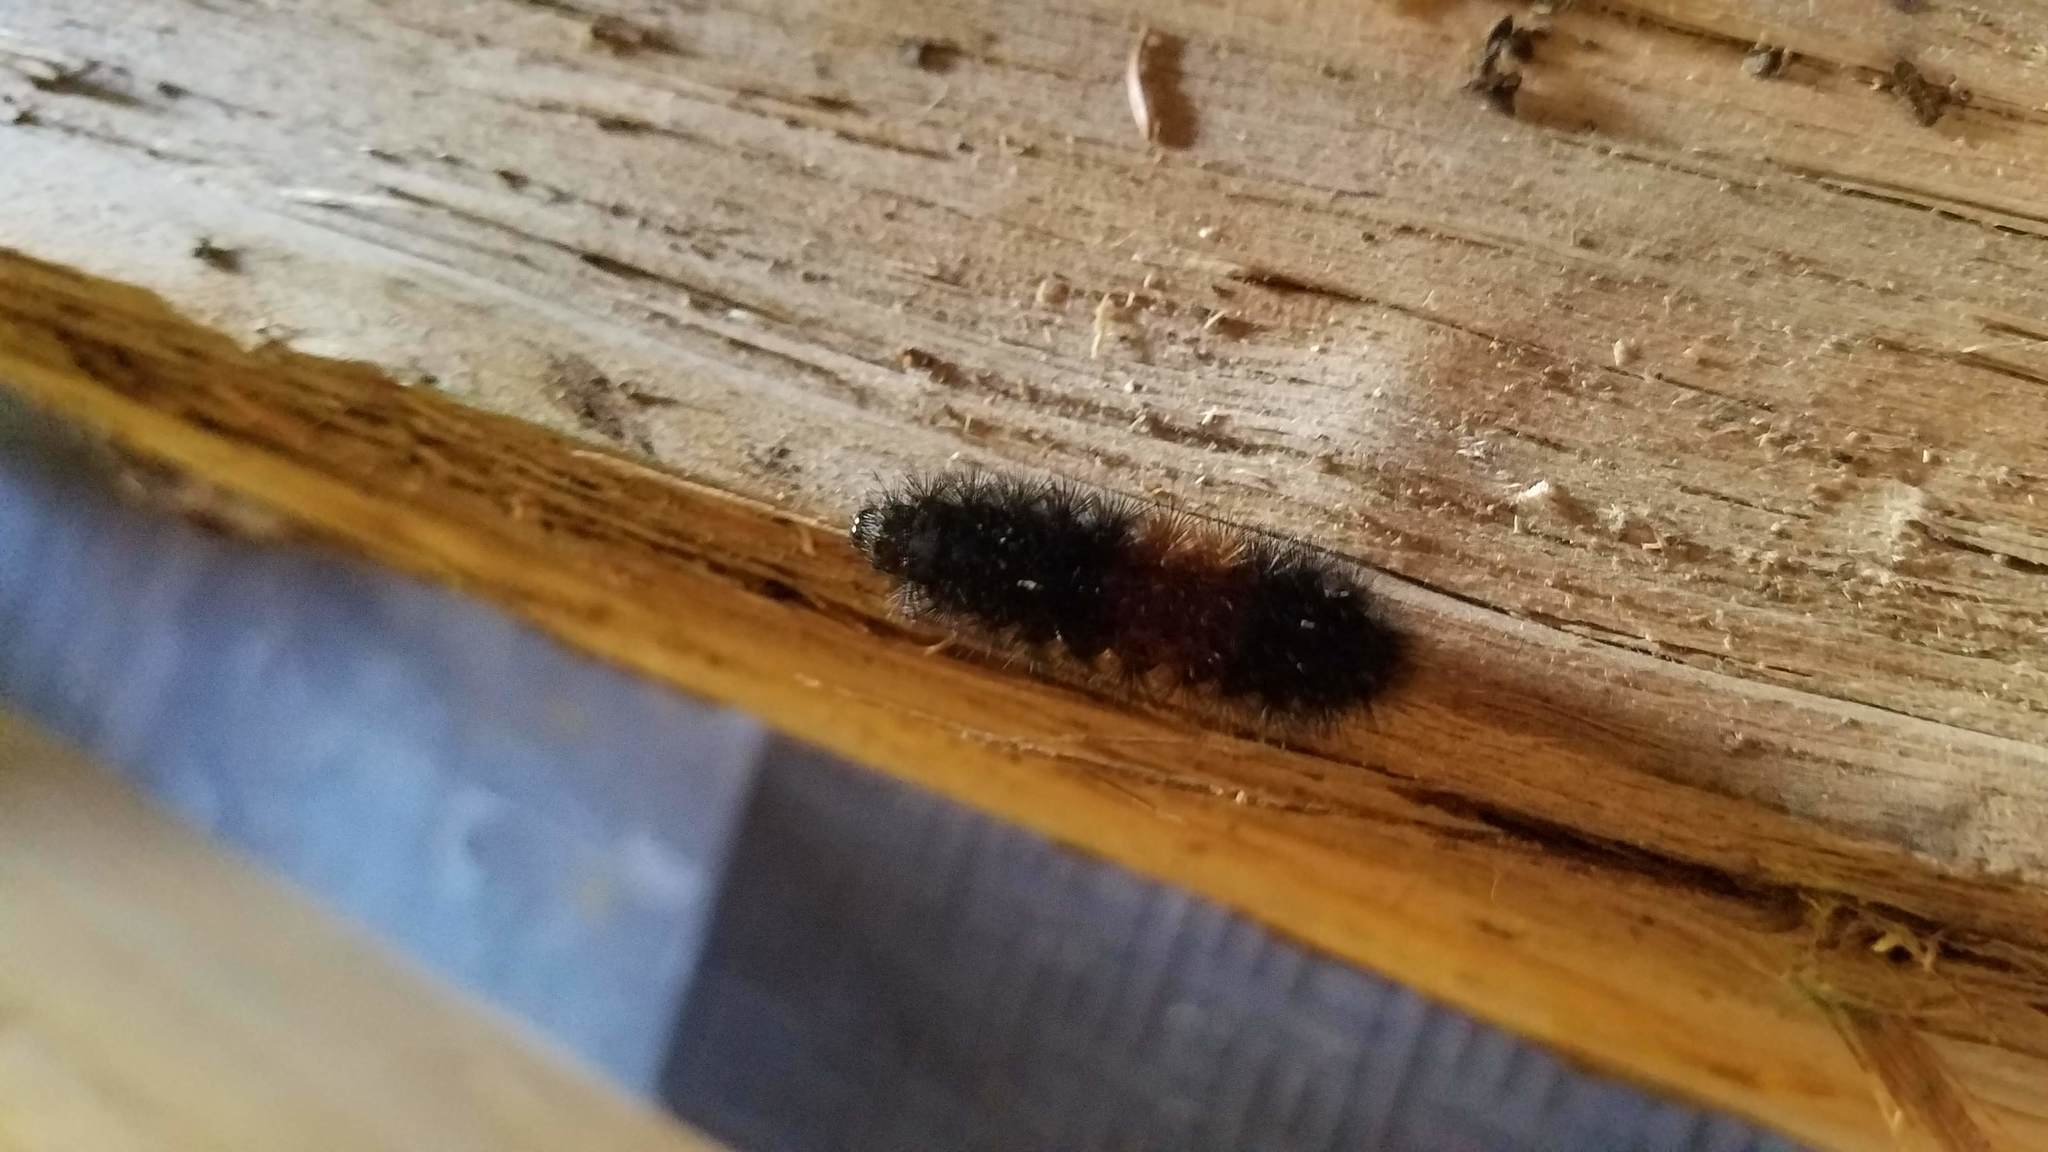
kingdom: Animalia
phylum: Arthropoda
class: Insecta
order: Lepidoptera
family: Erebidae
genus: Pyrrharctia
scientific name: Pyrrharctia isabella
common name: Isabella tiger moth
